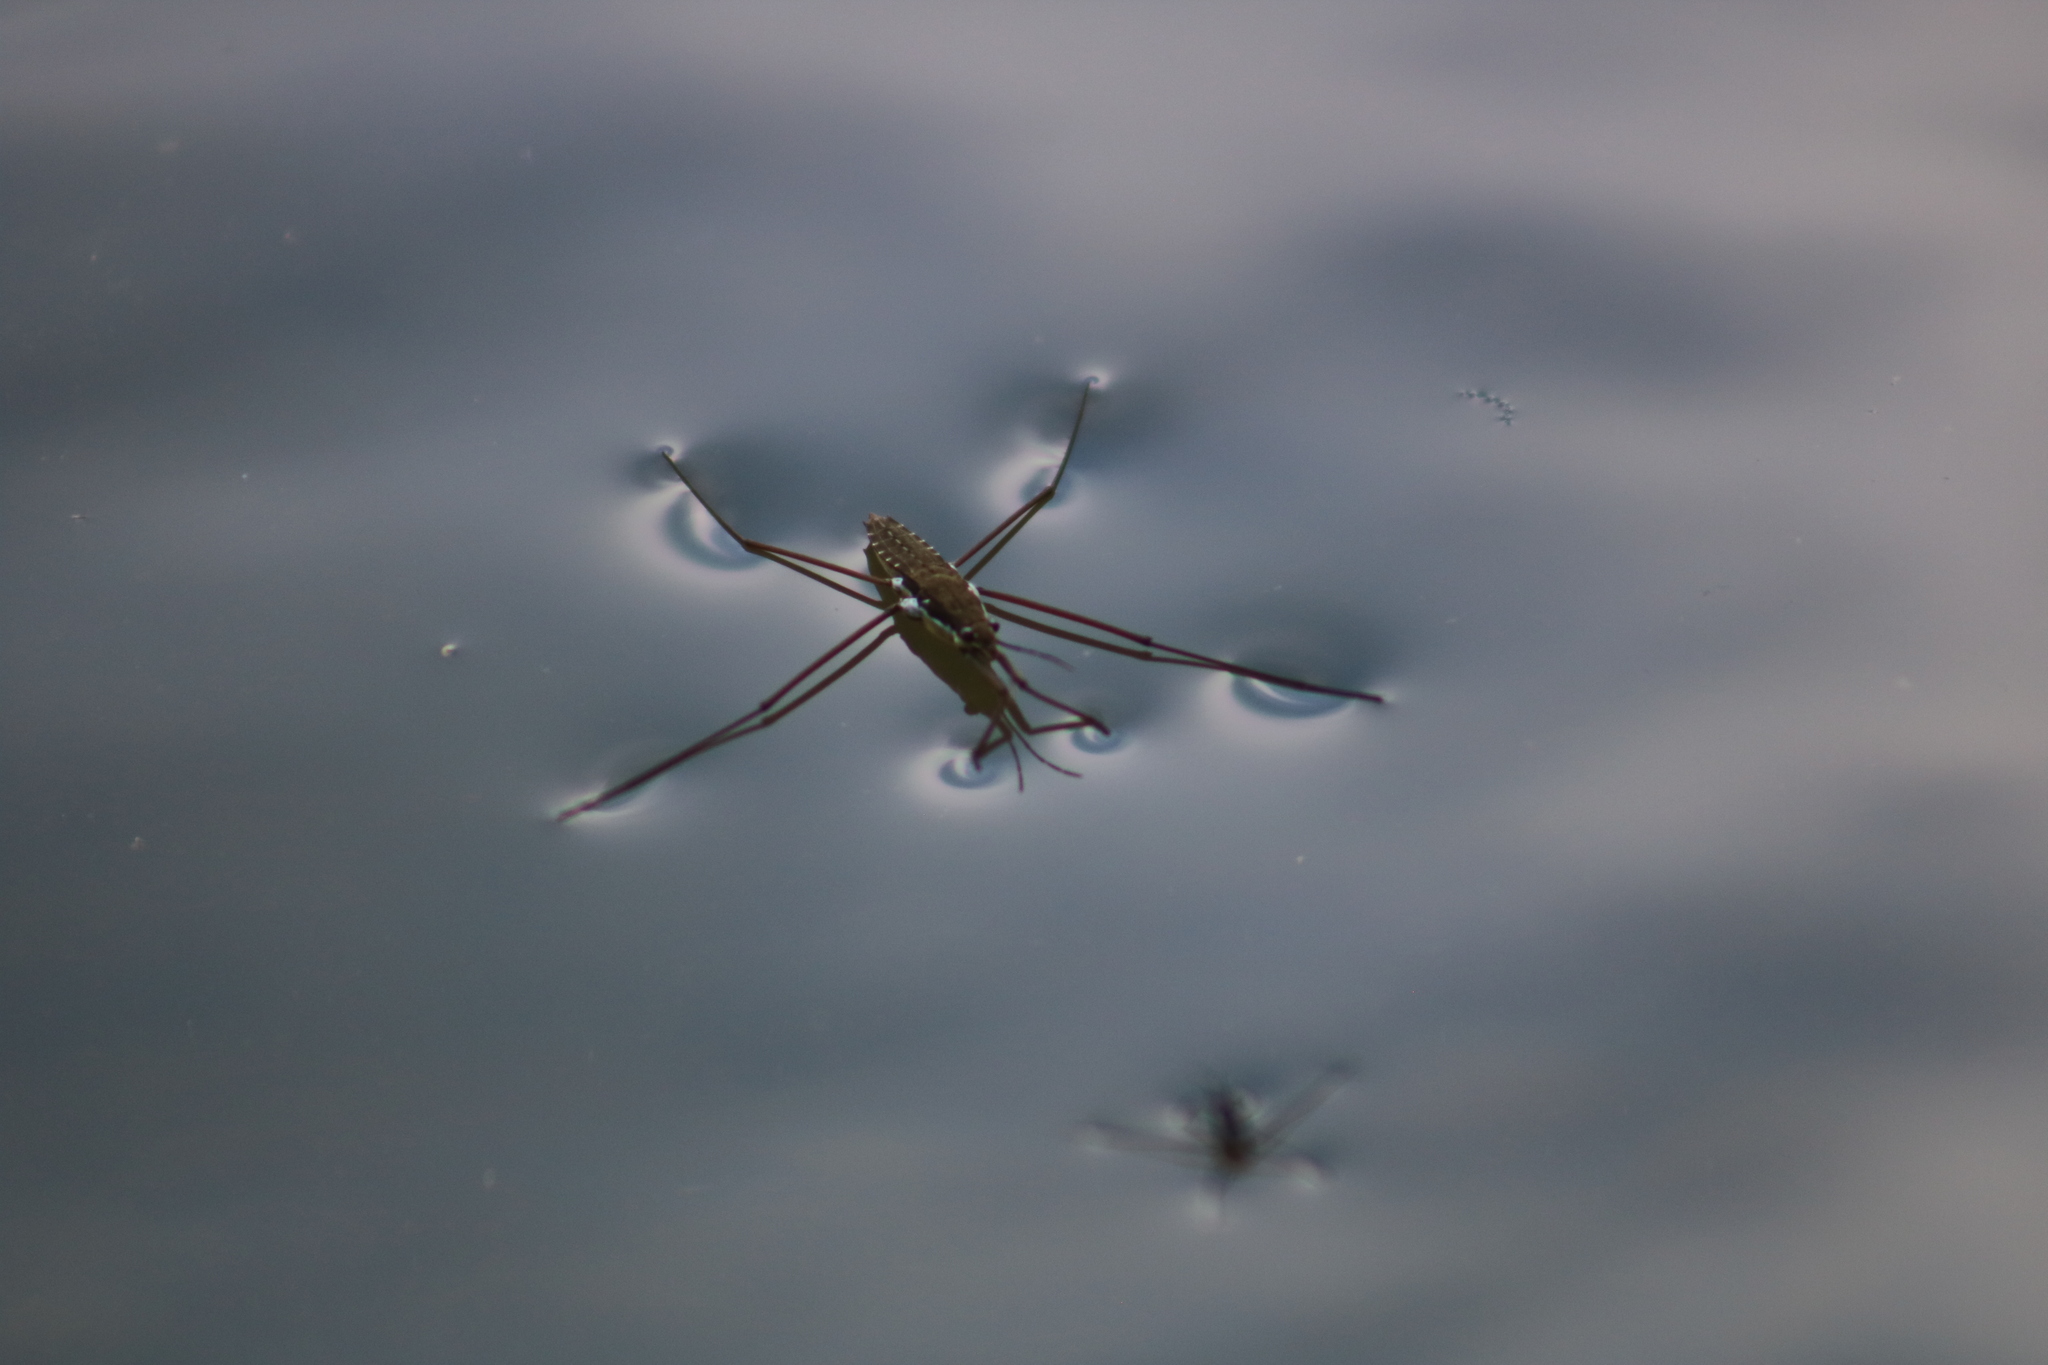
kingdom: Animalia
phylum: Arthropoda
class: Insecta
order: Hemiptera
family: Gerridae
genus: Aquarius
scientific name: Aquarius remigis
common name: Common water strider
